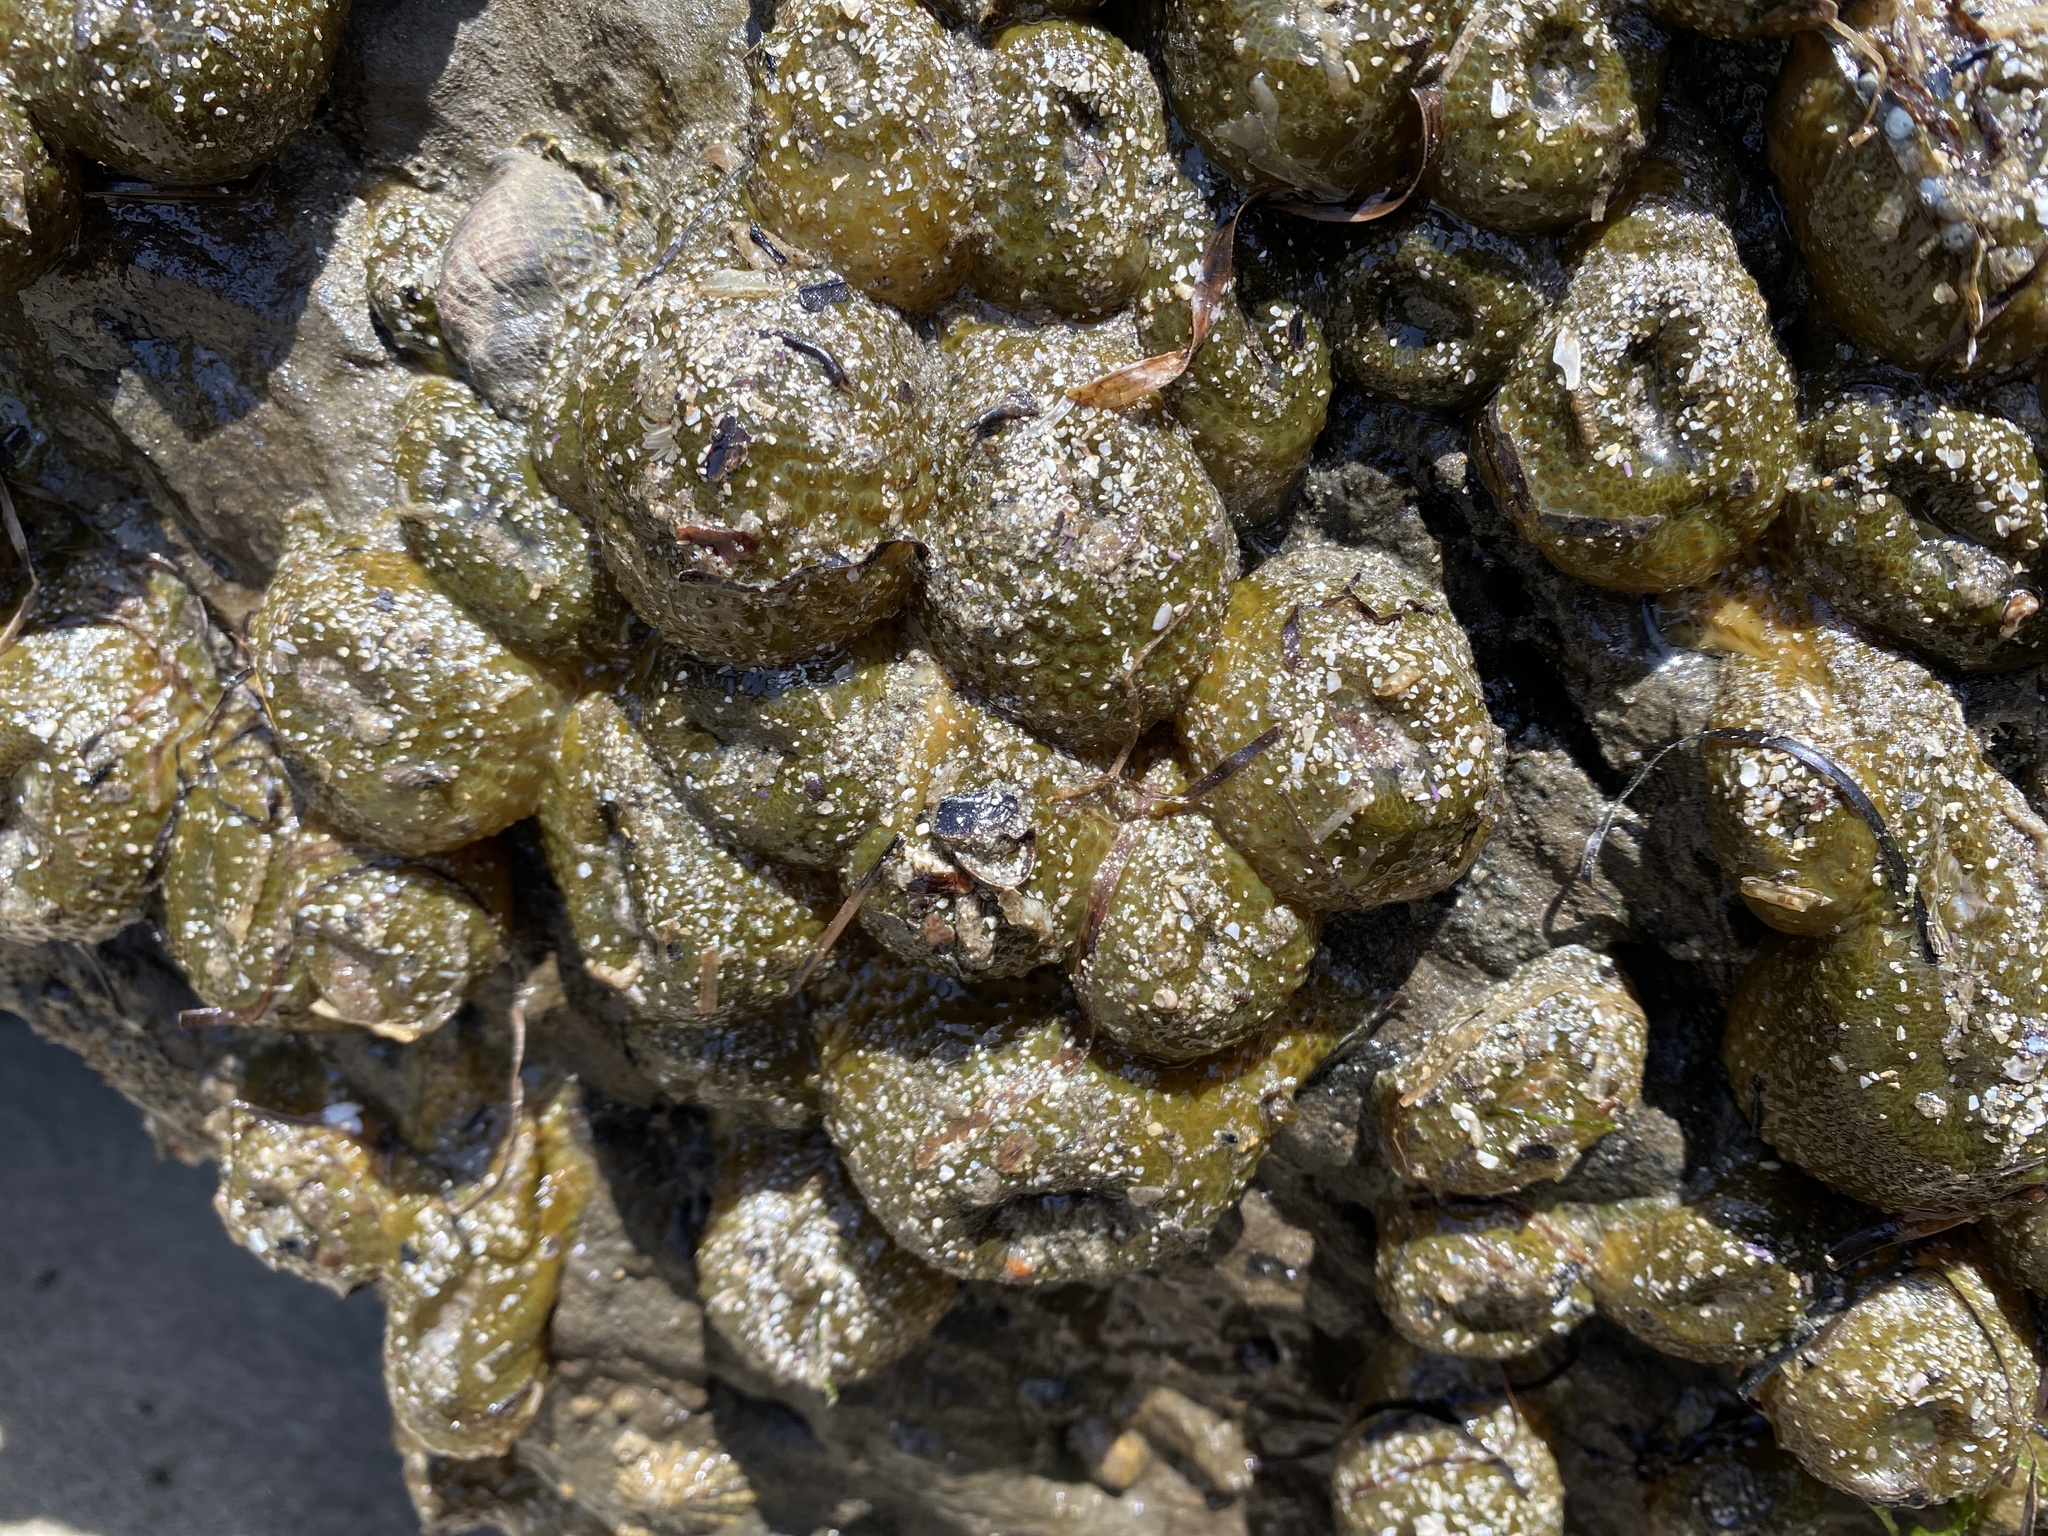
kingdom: Animalia
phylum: Cnidaria
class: Anthozoa
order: Actiniaria
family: Actiniidae
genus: Anthopleura
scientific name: Anthopleura elegantissima
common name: Clonal anemone
